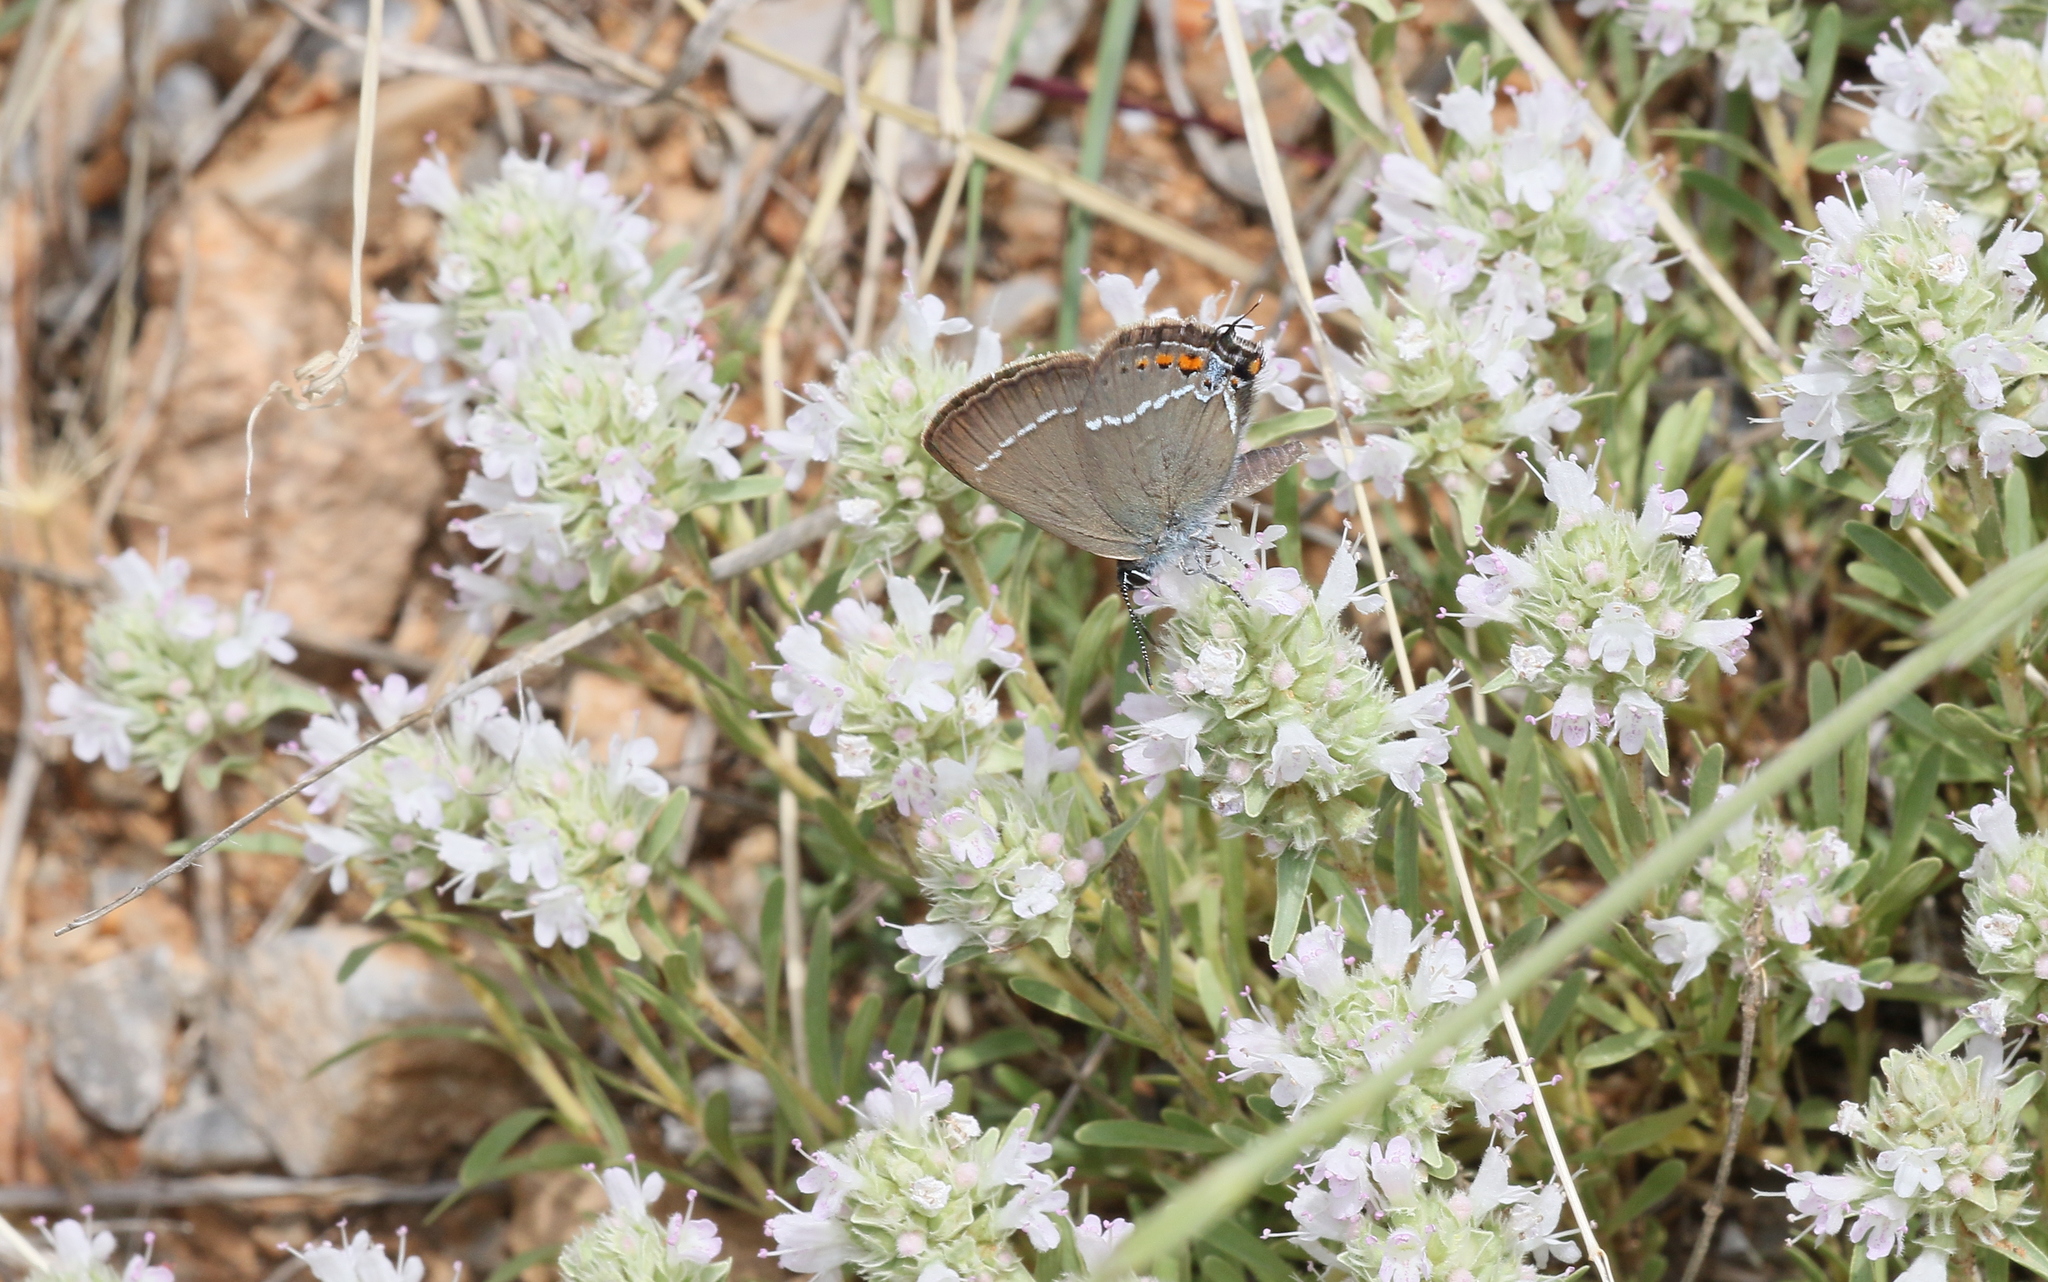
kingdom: Animalia
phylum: Arthropoda
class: Insecta
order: Lepidoptera
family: Lycaenidae
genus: Tuttiola
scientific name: Tuttiola spini
